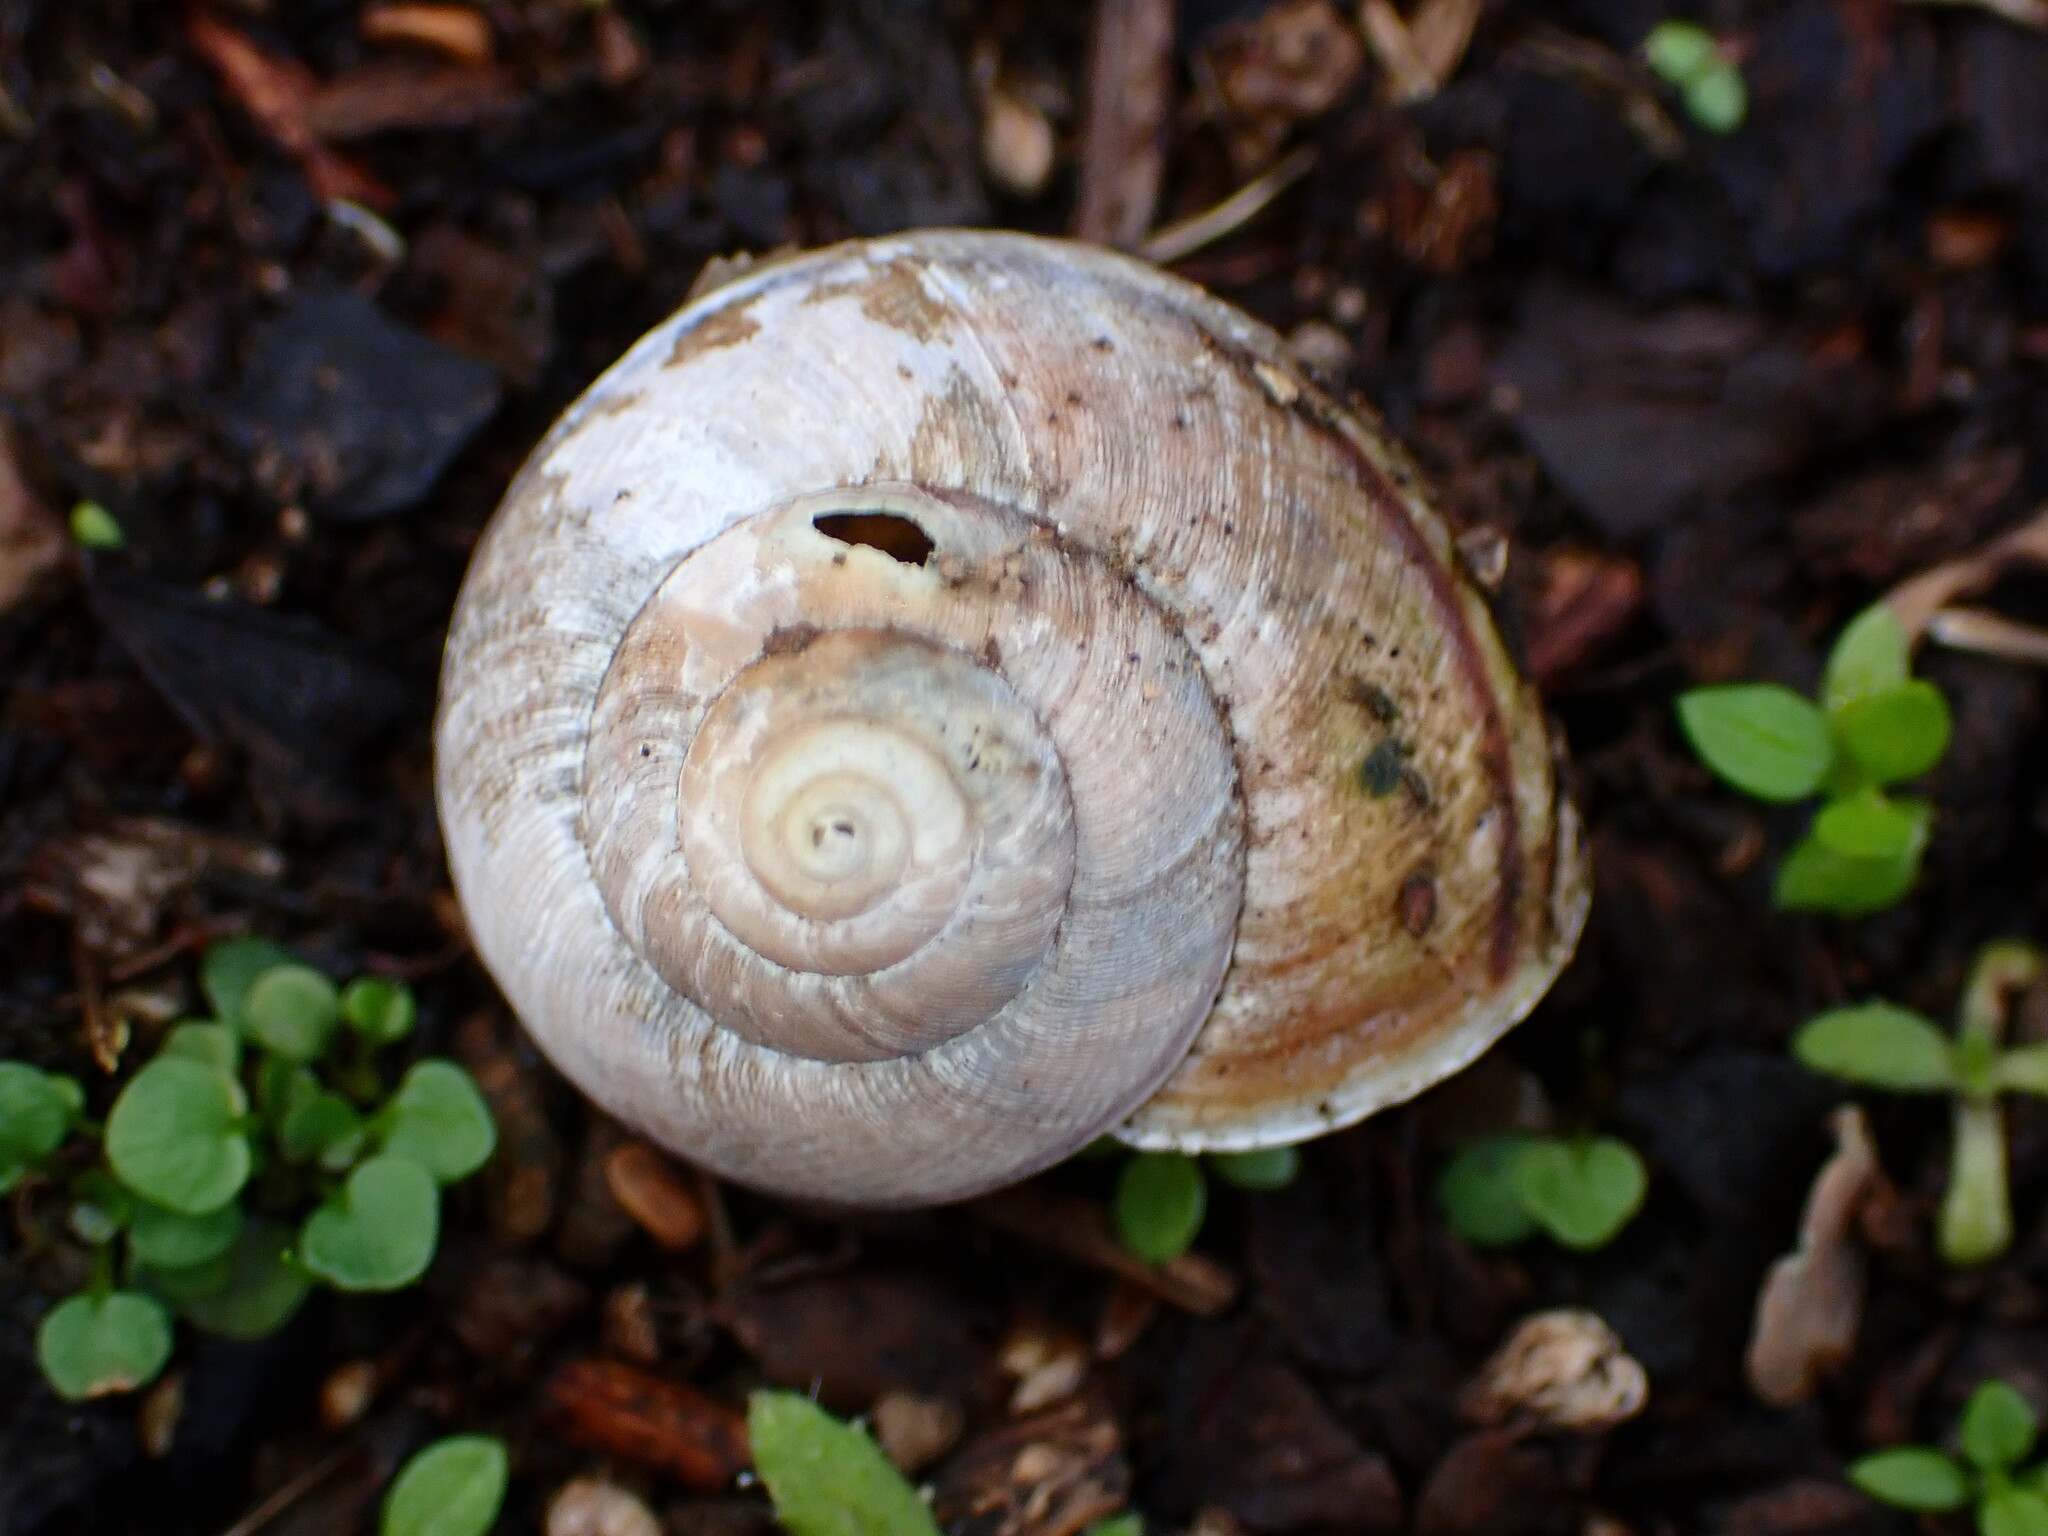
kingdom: Animalia
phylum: Mollusca
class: Gastropoda
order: Stylommatophora
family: Xanthonychidae
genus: Helminthoglypta
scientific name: Helminthoglypta nickliniana
